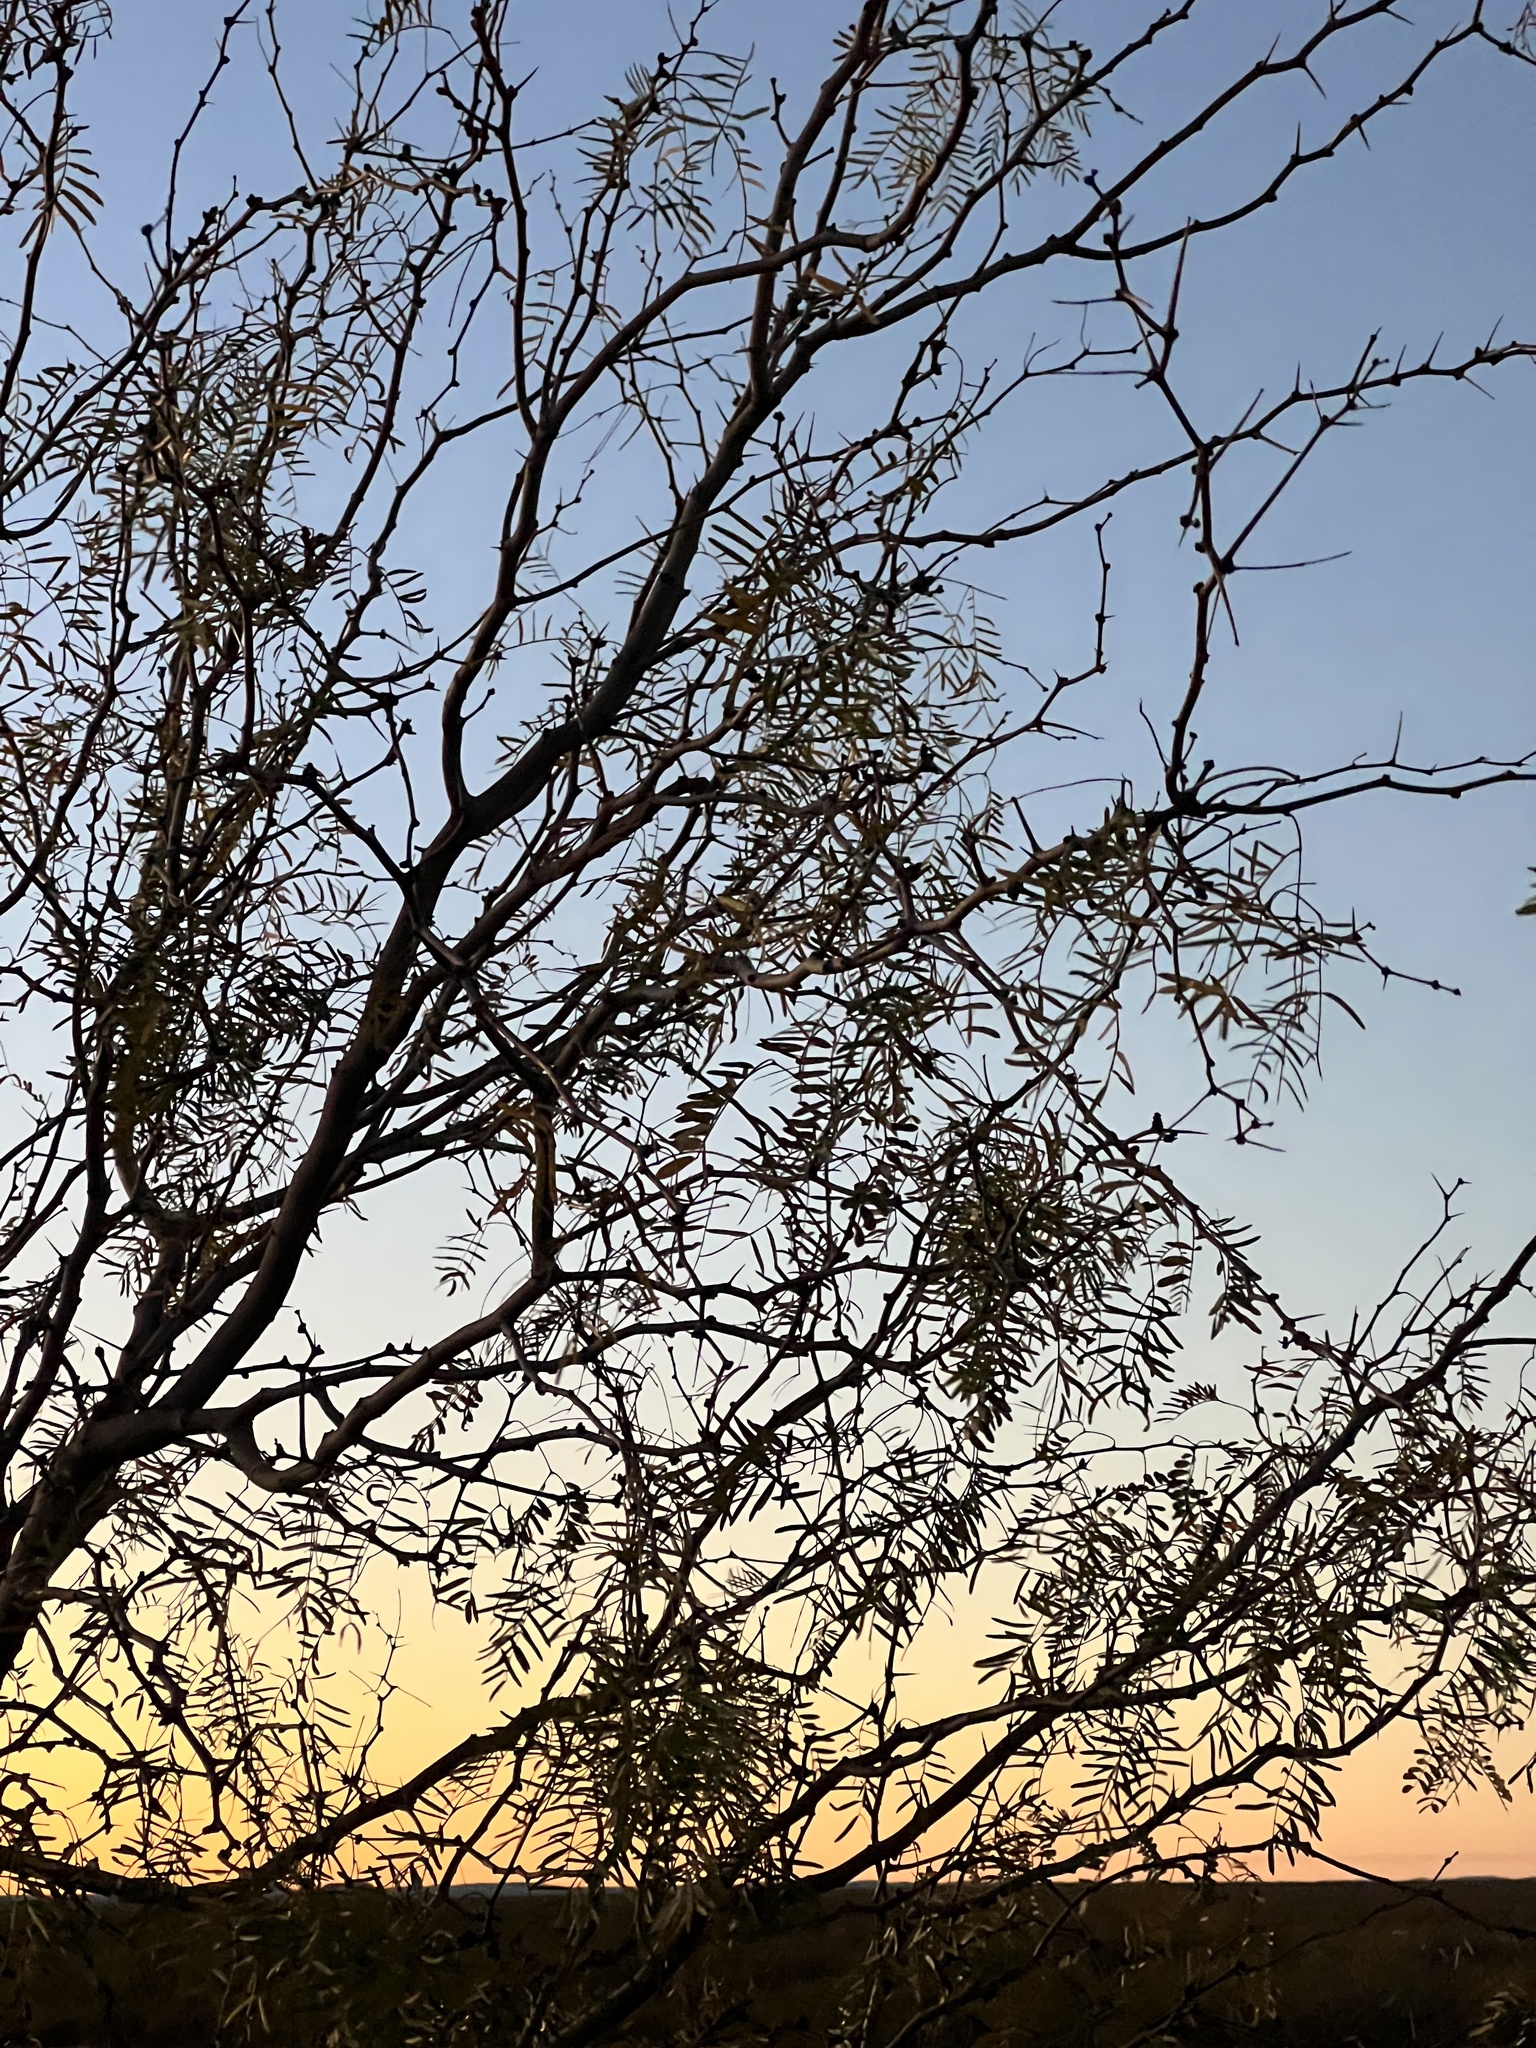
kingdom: Plantae
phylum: Tracheophyta
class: Magnoliopsida
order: Fabales
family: Fabaceae
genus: Prosopis
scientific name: Prosopis glandulosa
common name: Honey mesquite
